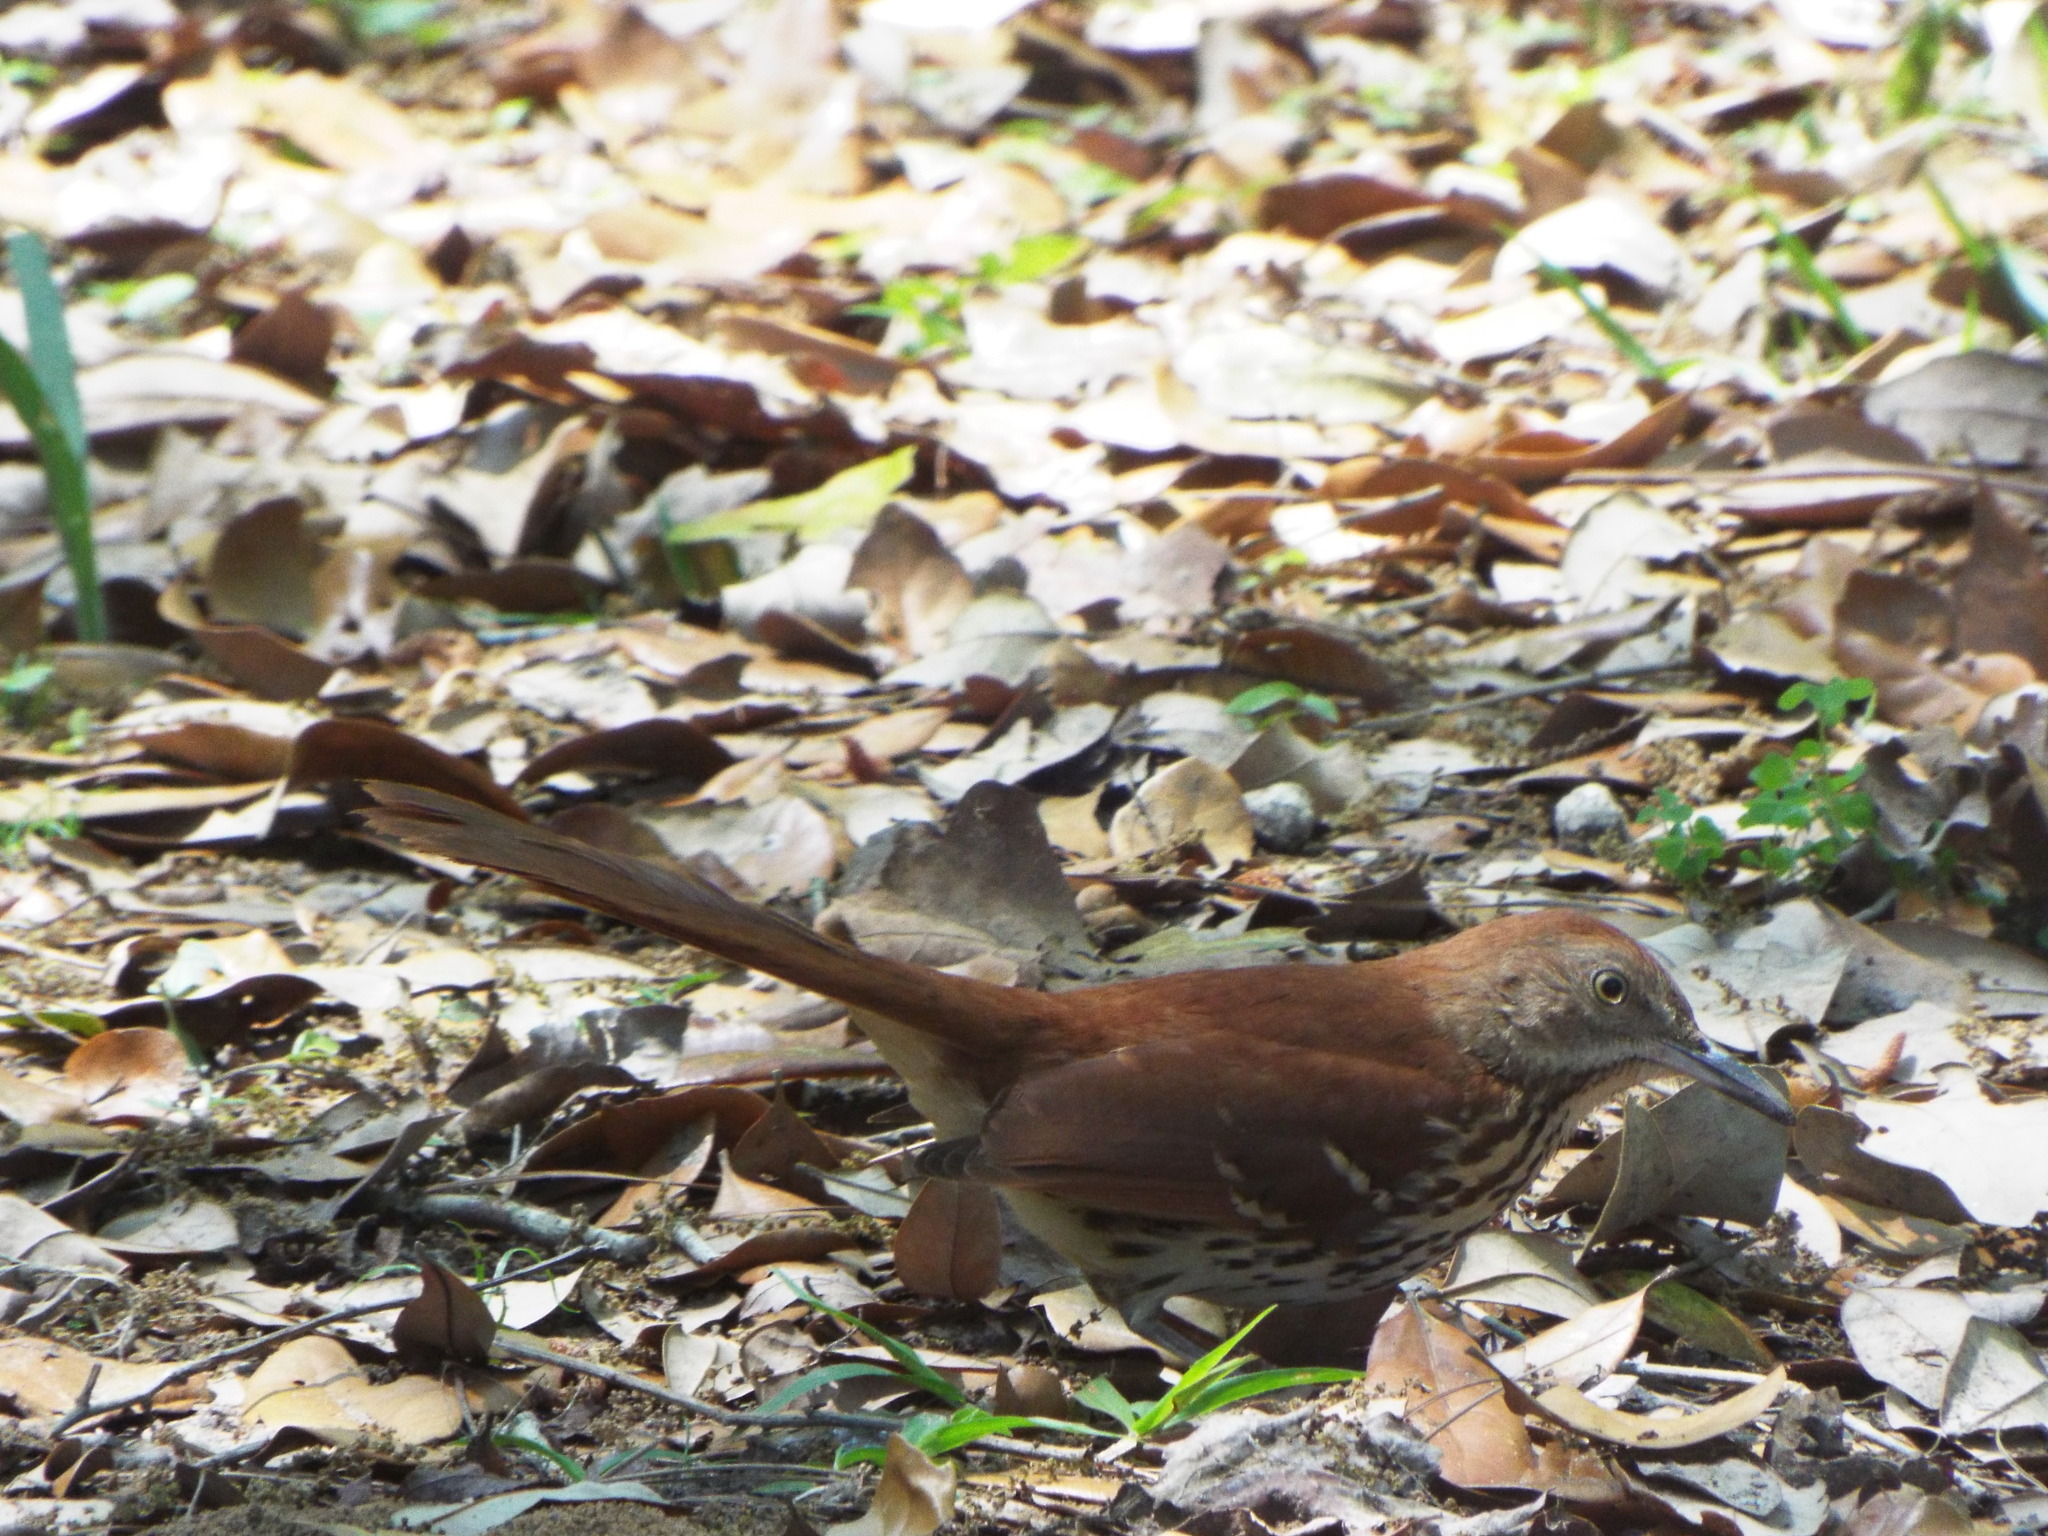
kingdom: Animalia
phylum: Chordata
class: Aves
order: Passeriformes
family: Mimidae
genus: Toxostoma
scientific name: Toxostoma rufum
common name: Brown thrasher
